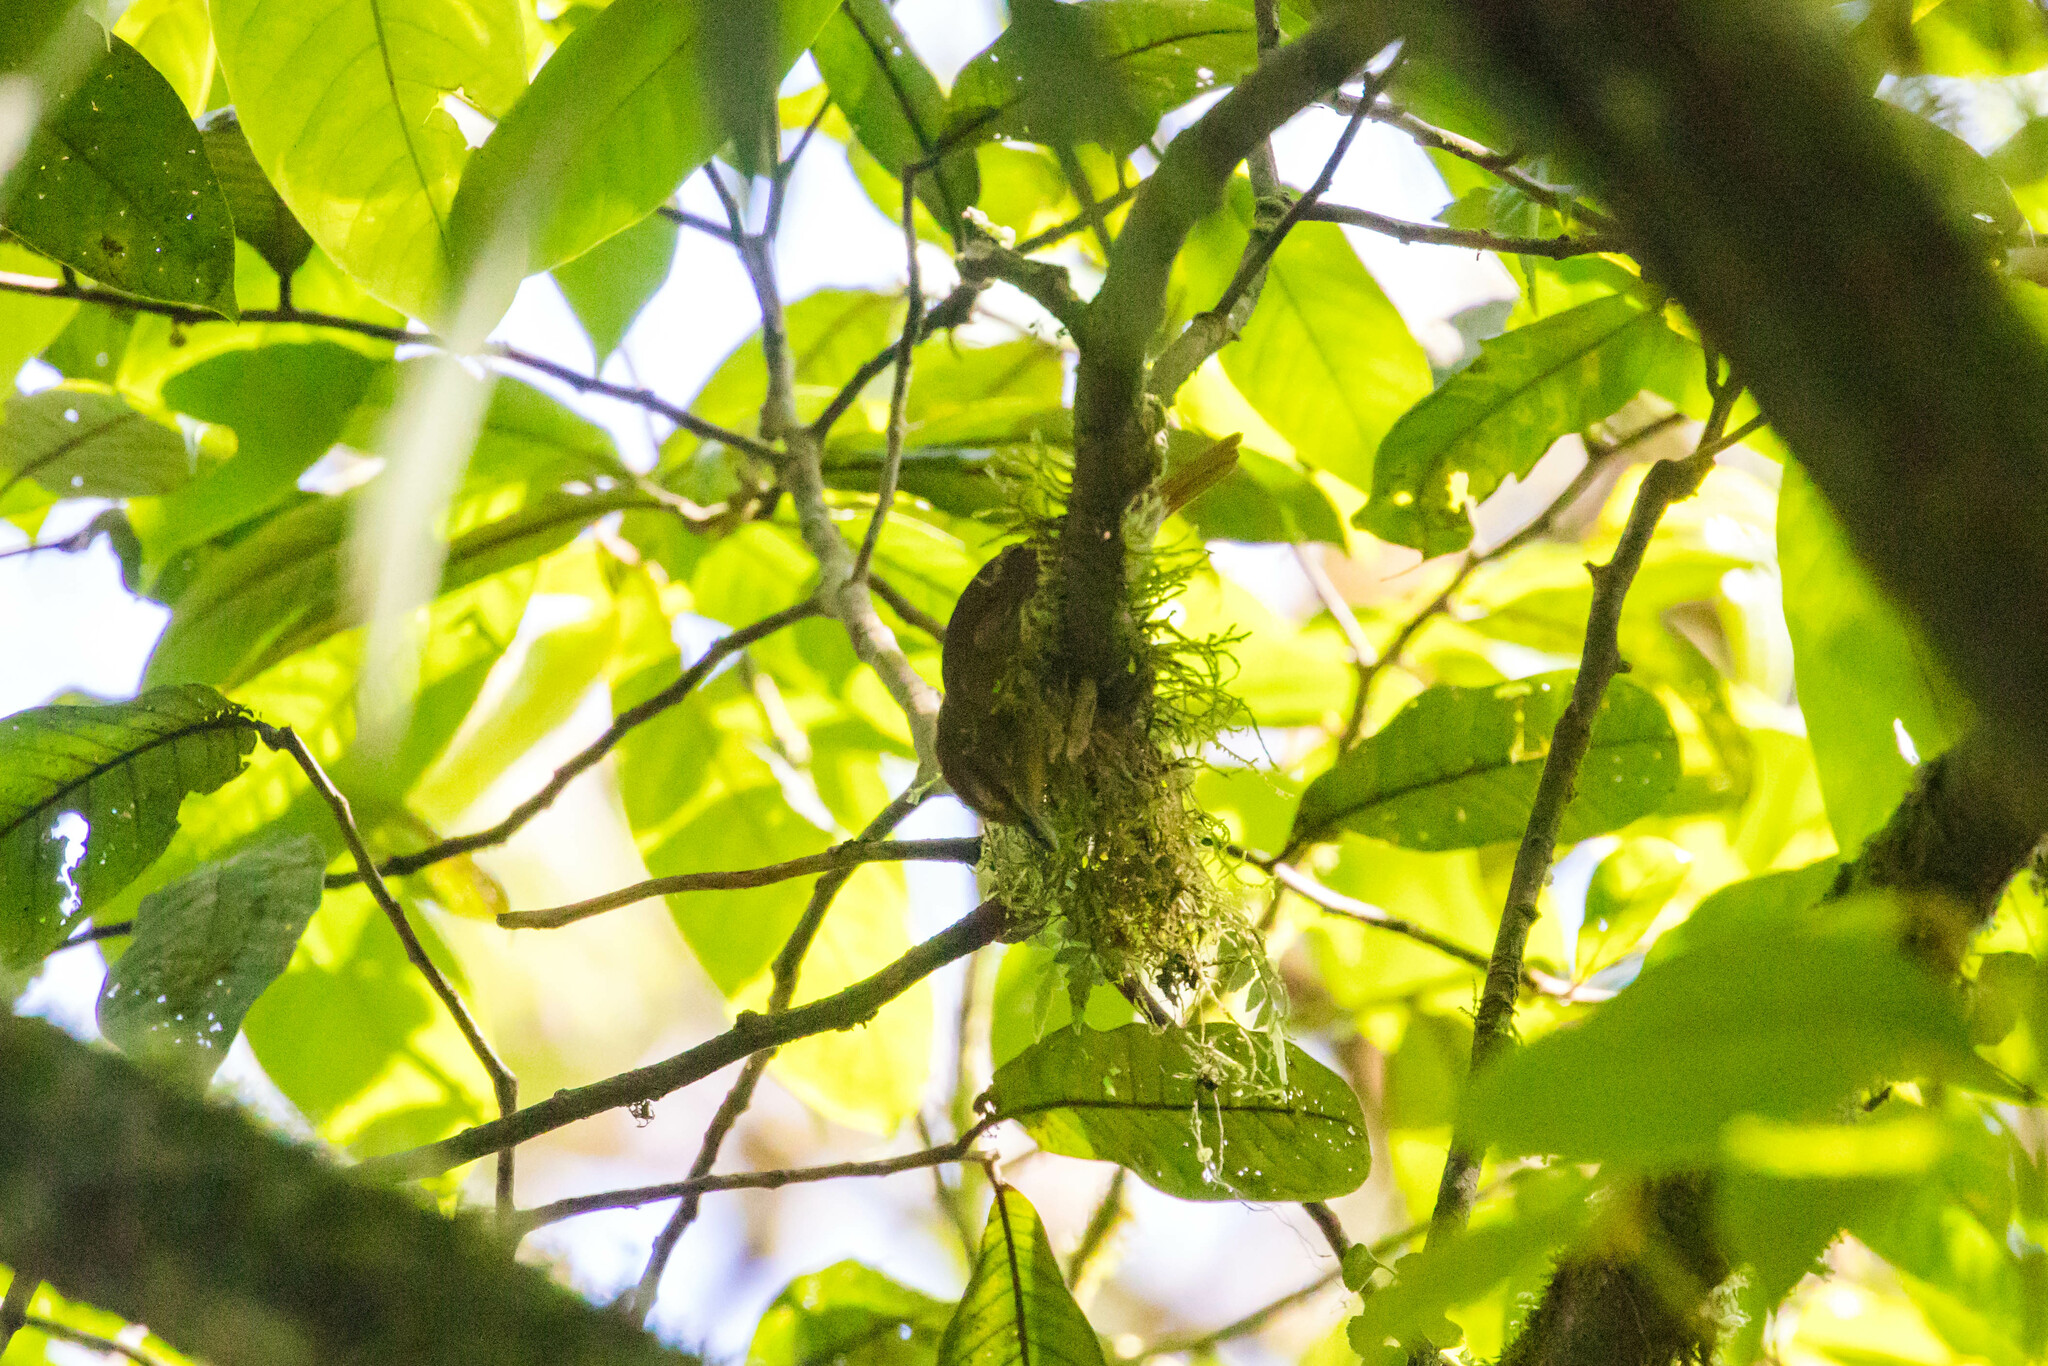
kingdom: Animalia
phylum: Chordata
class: Aves
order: Passeriformes
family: Thamnophilidae
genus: Thamnistes
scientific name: Thamnistes anabatinus
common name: Russet antshrike
